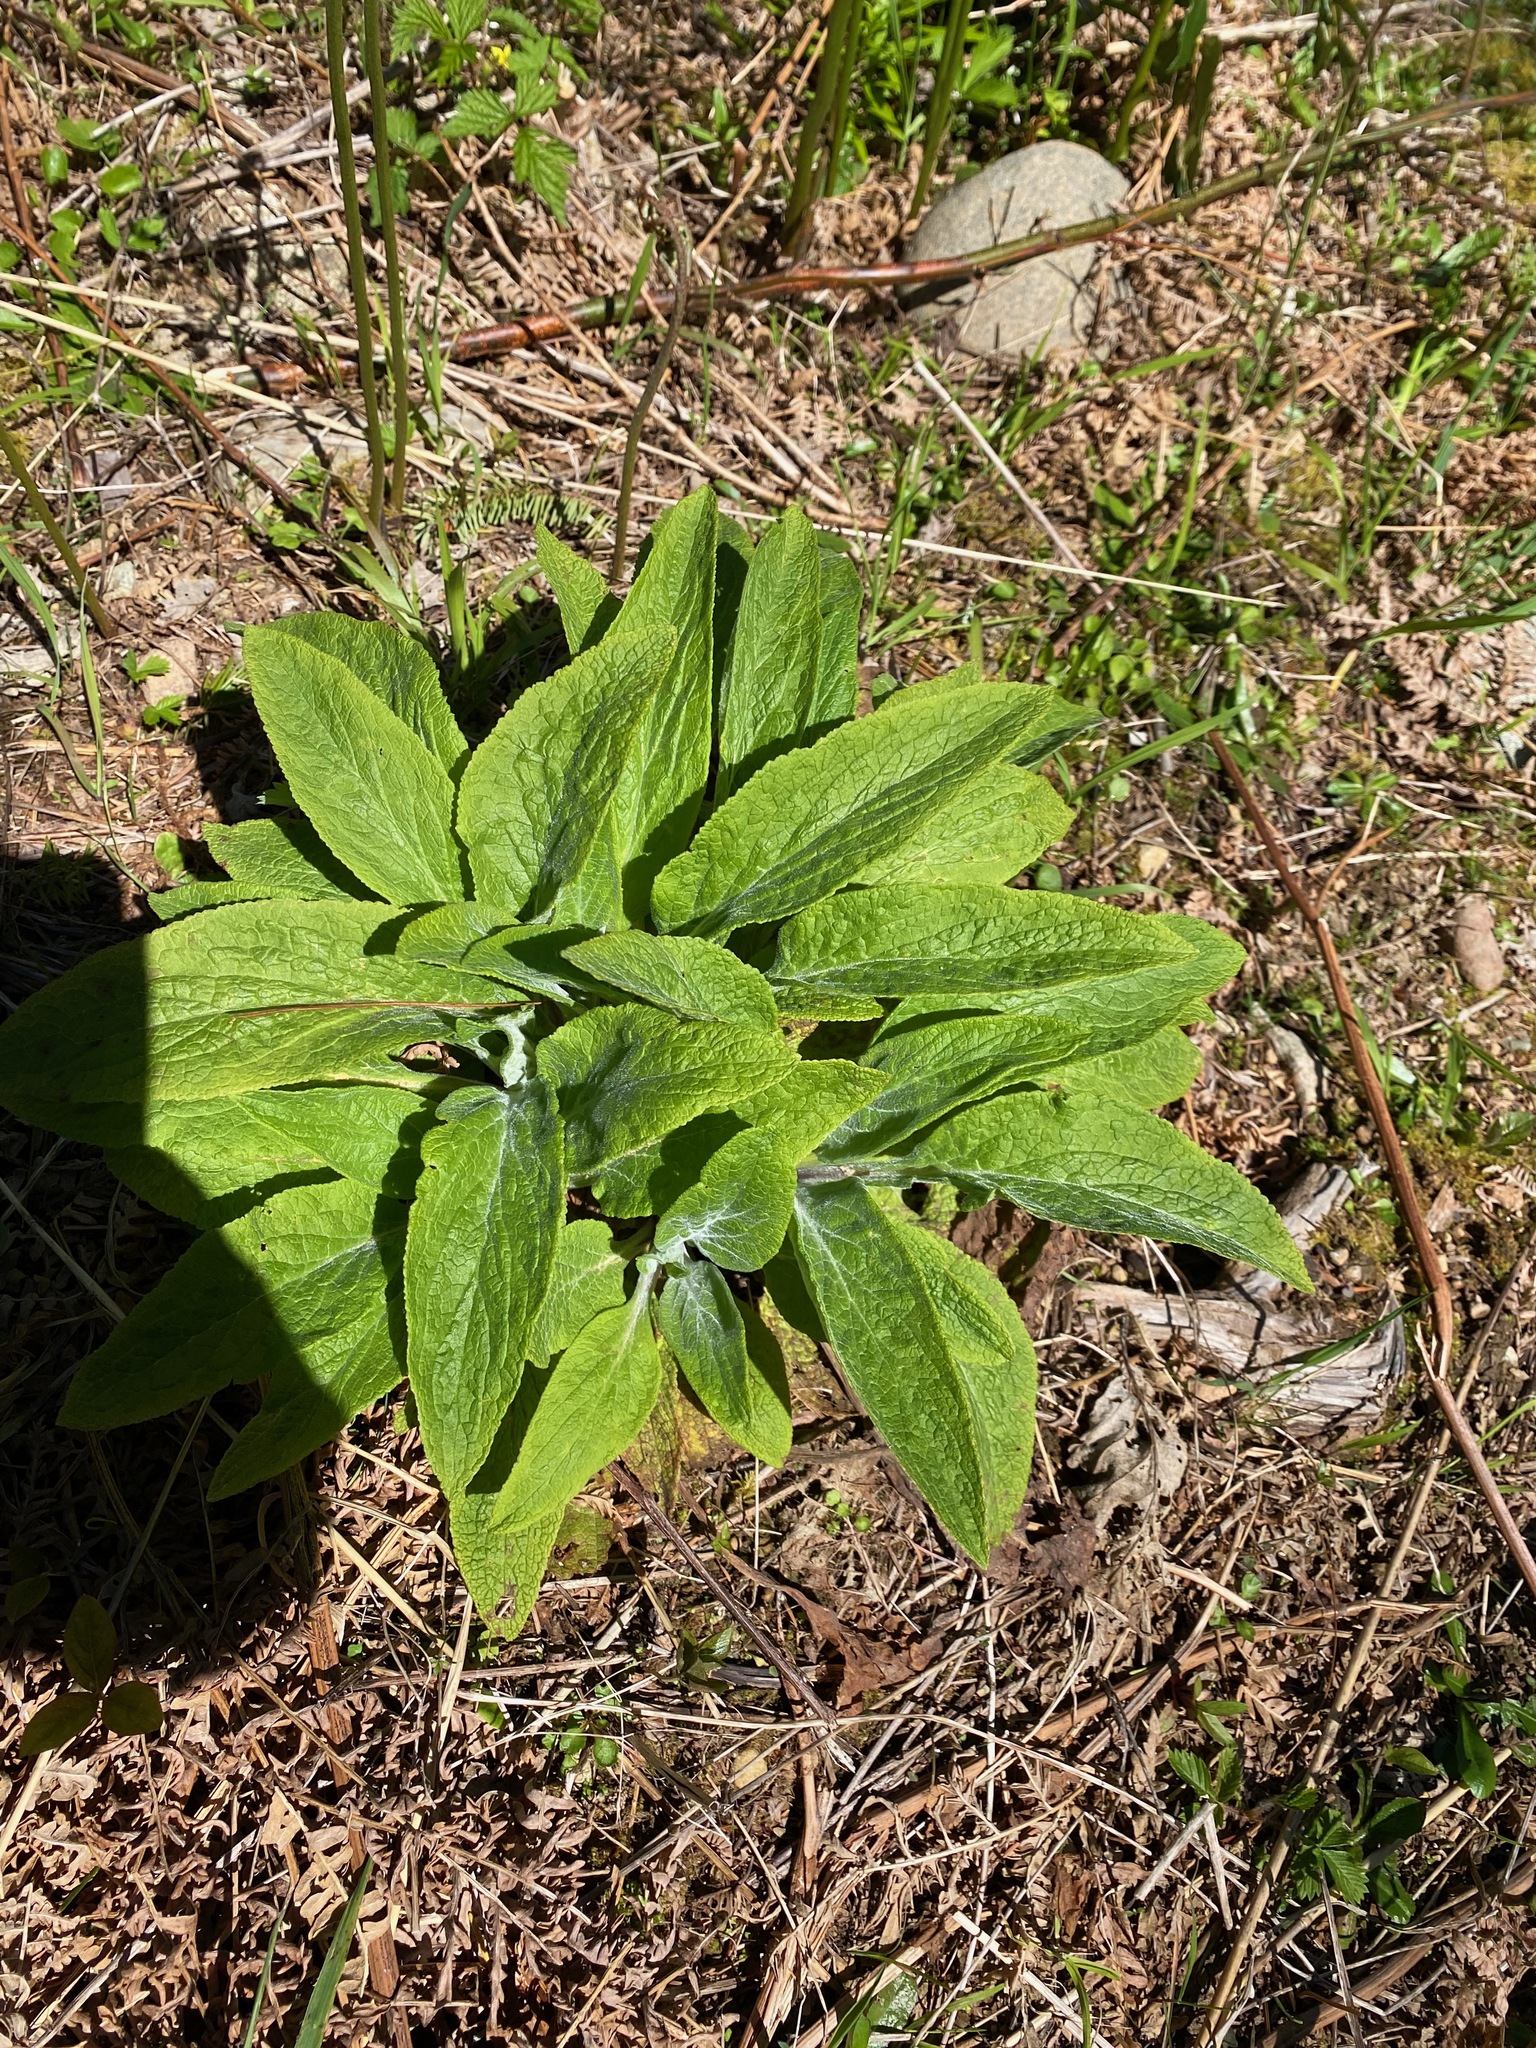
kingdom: Plantae
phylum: Tracheophyta
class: Magnoliopsida
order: Lamiales
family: Plantaginaceae
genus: Digitalis
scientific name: Digitalis purpurea
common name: Foxglove
